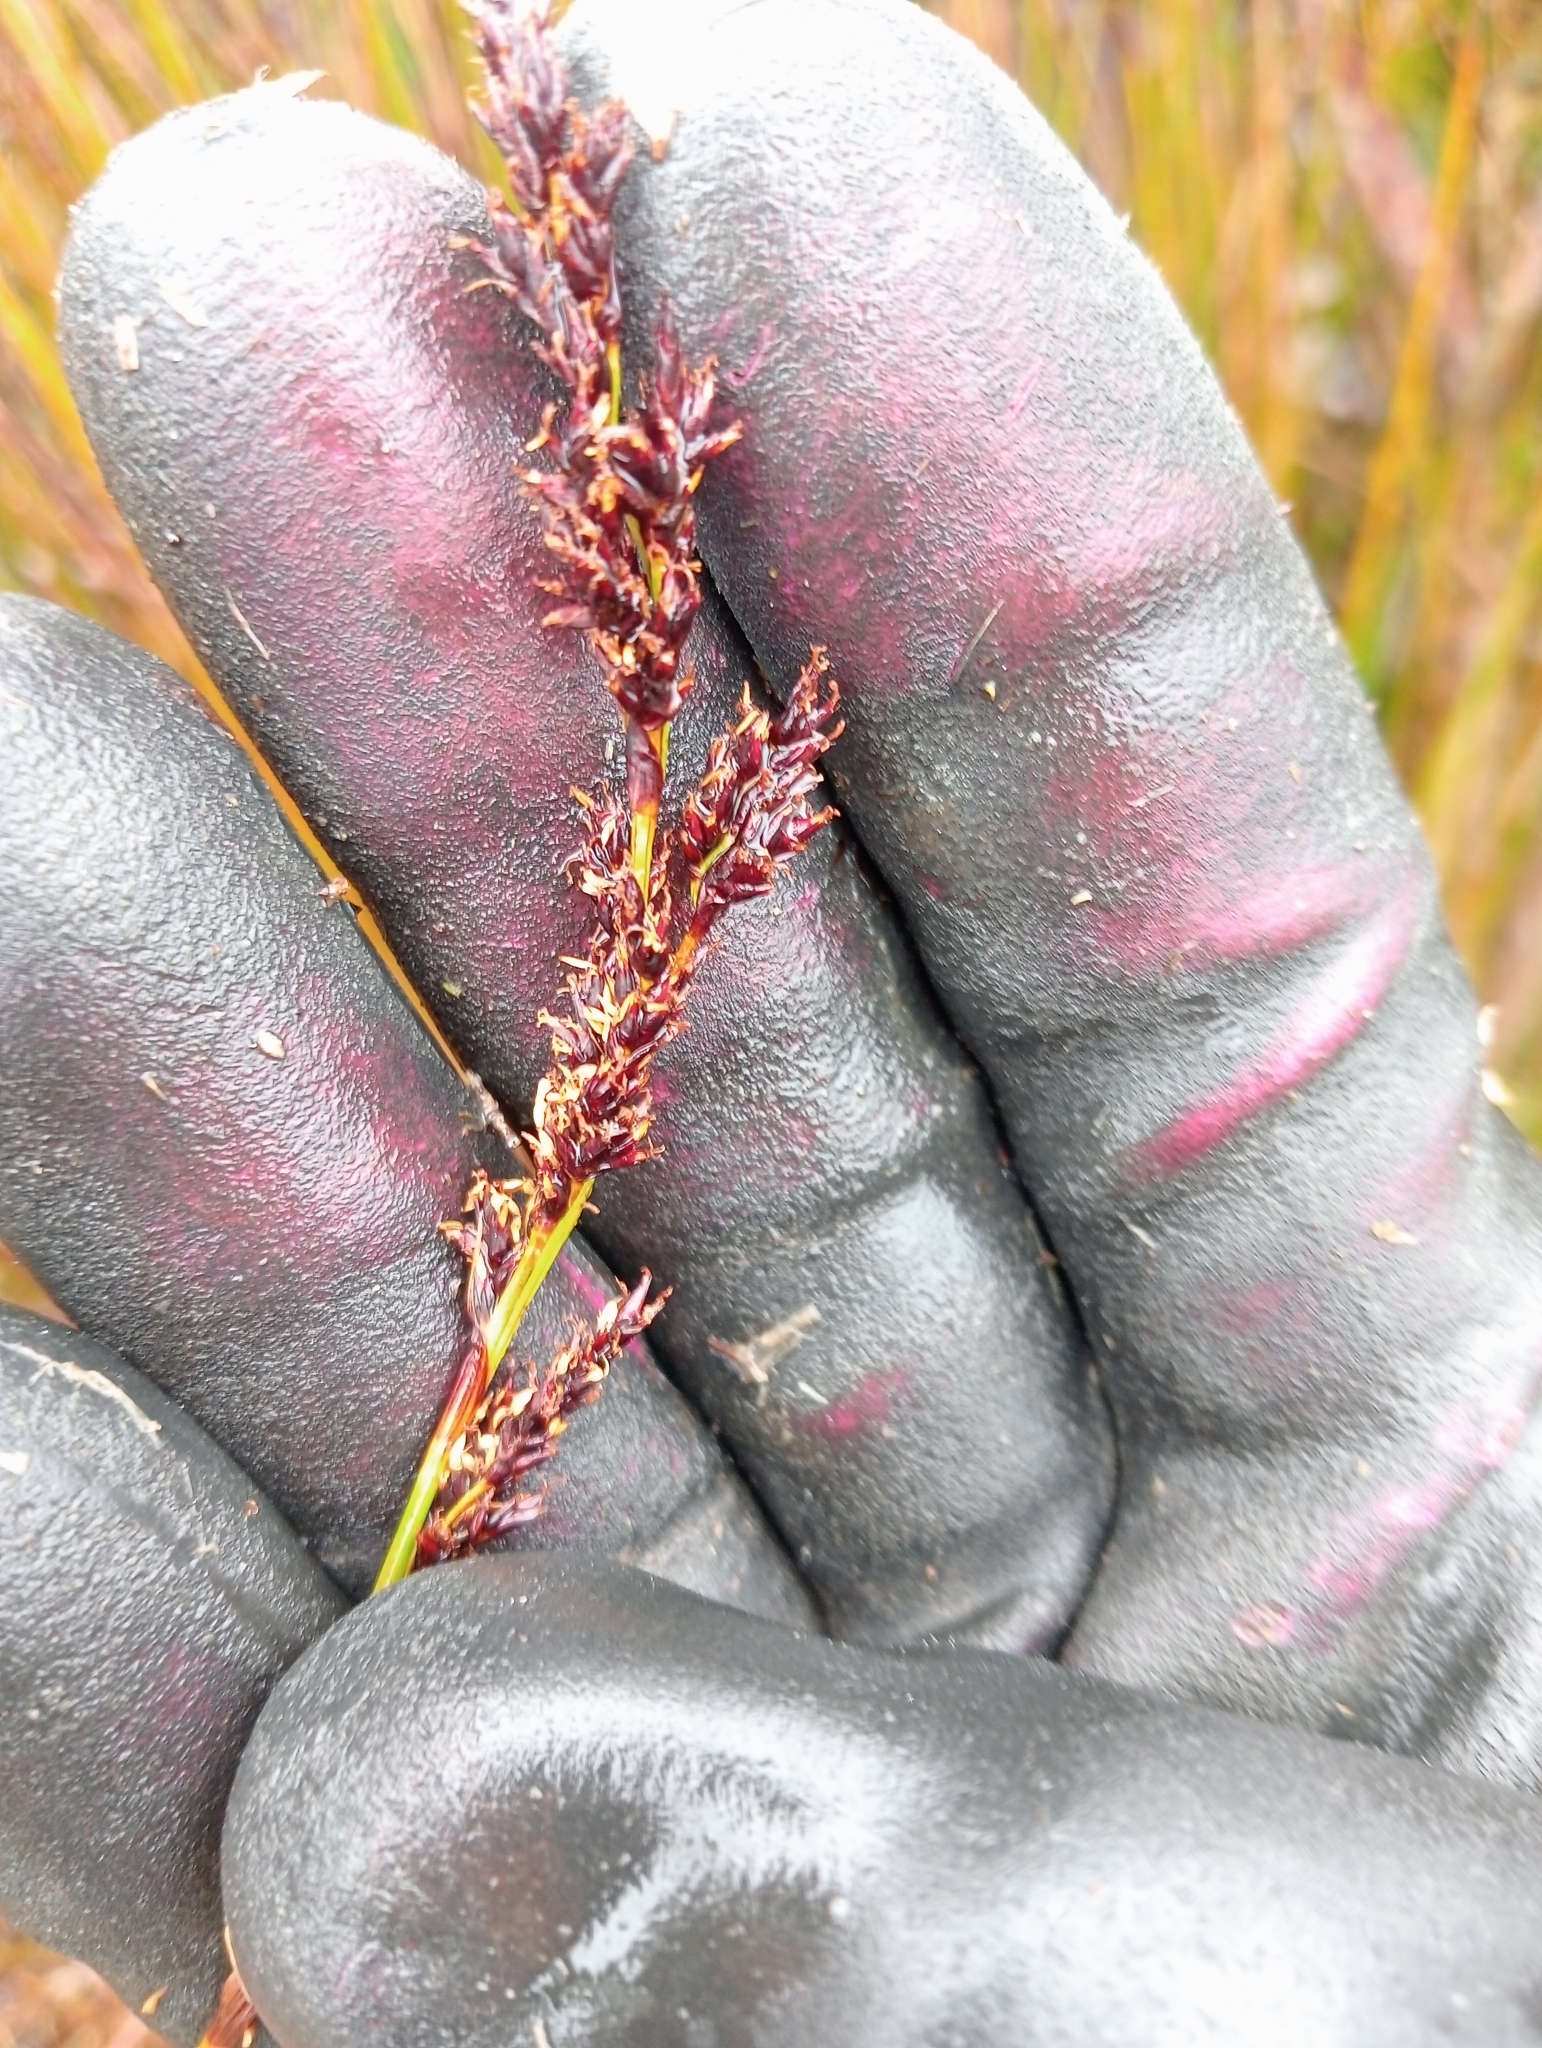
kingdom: Plantae
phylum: Tracheophyta
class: Liliopsida
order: Poales
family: Cyperaceae
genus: Machaerina
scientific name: Machaerina teretifolia
